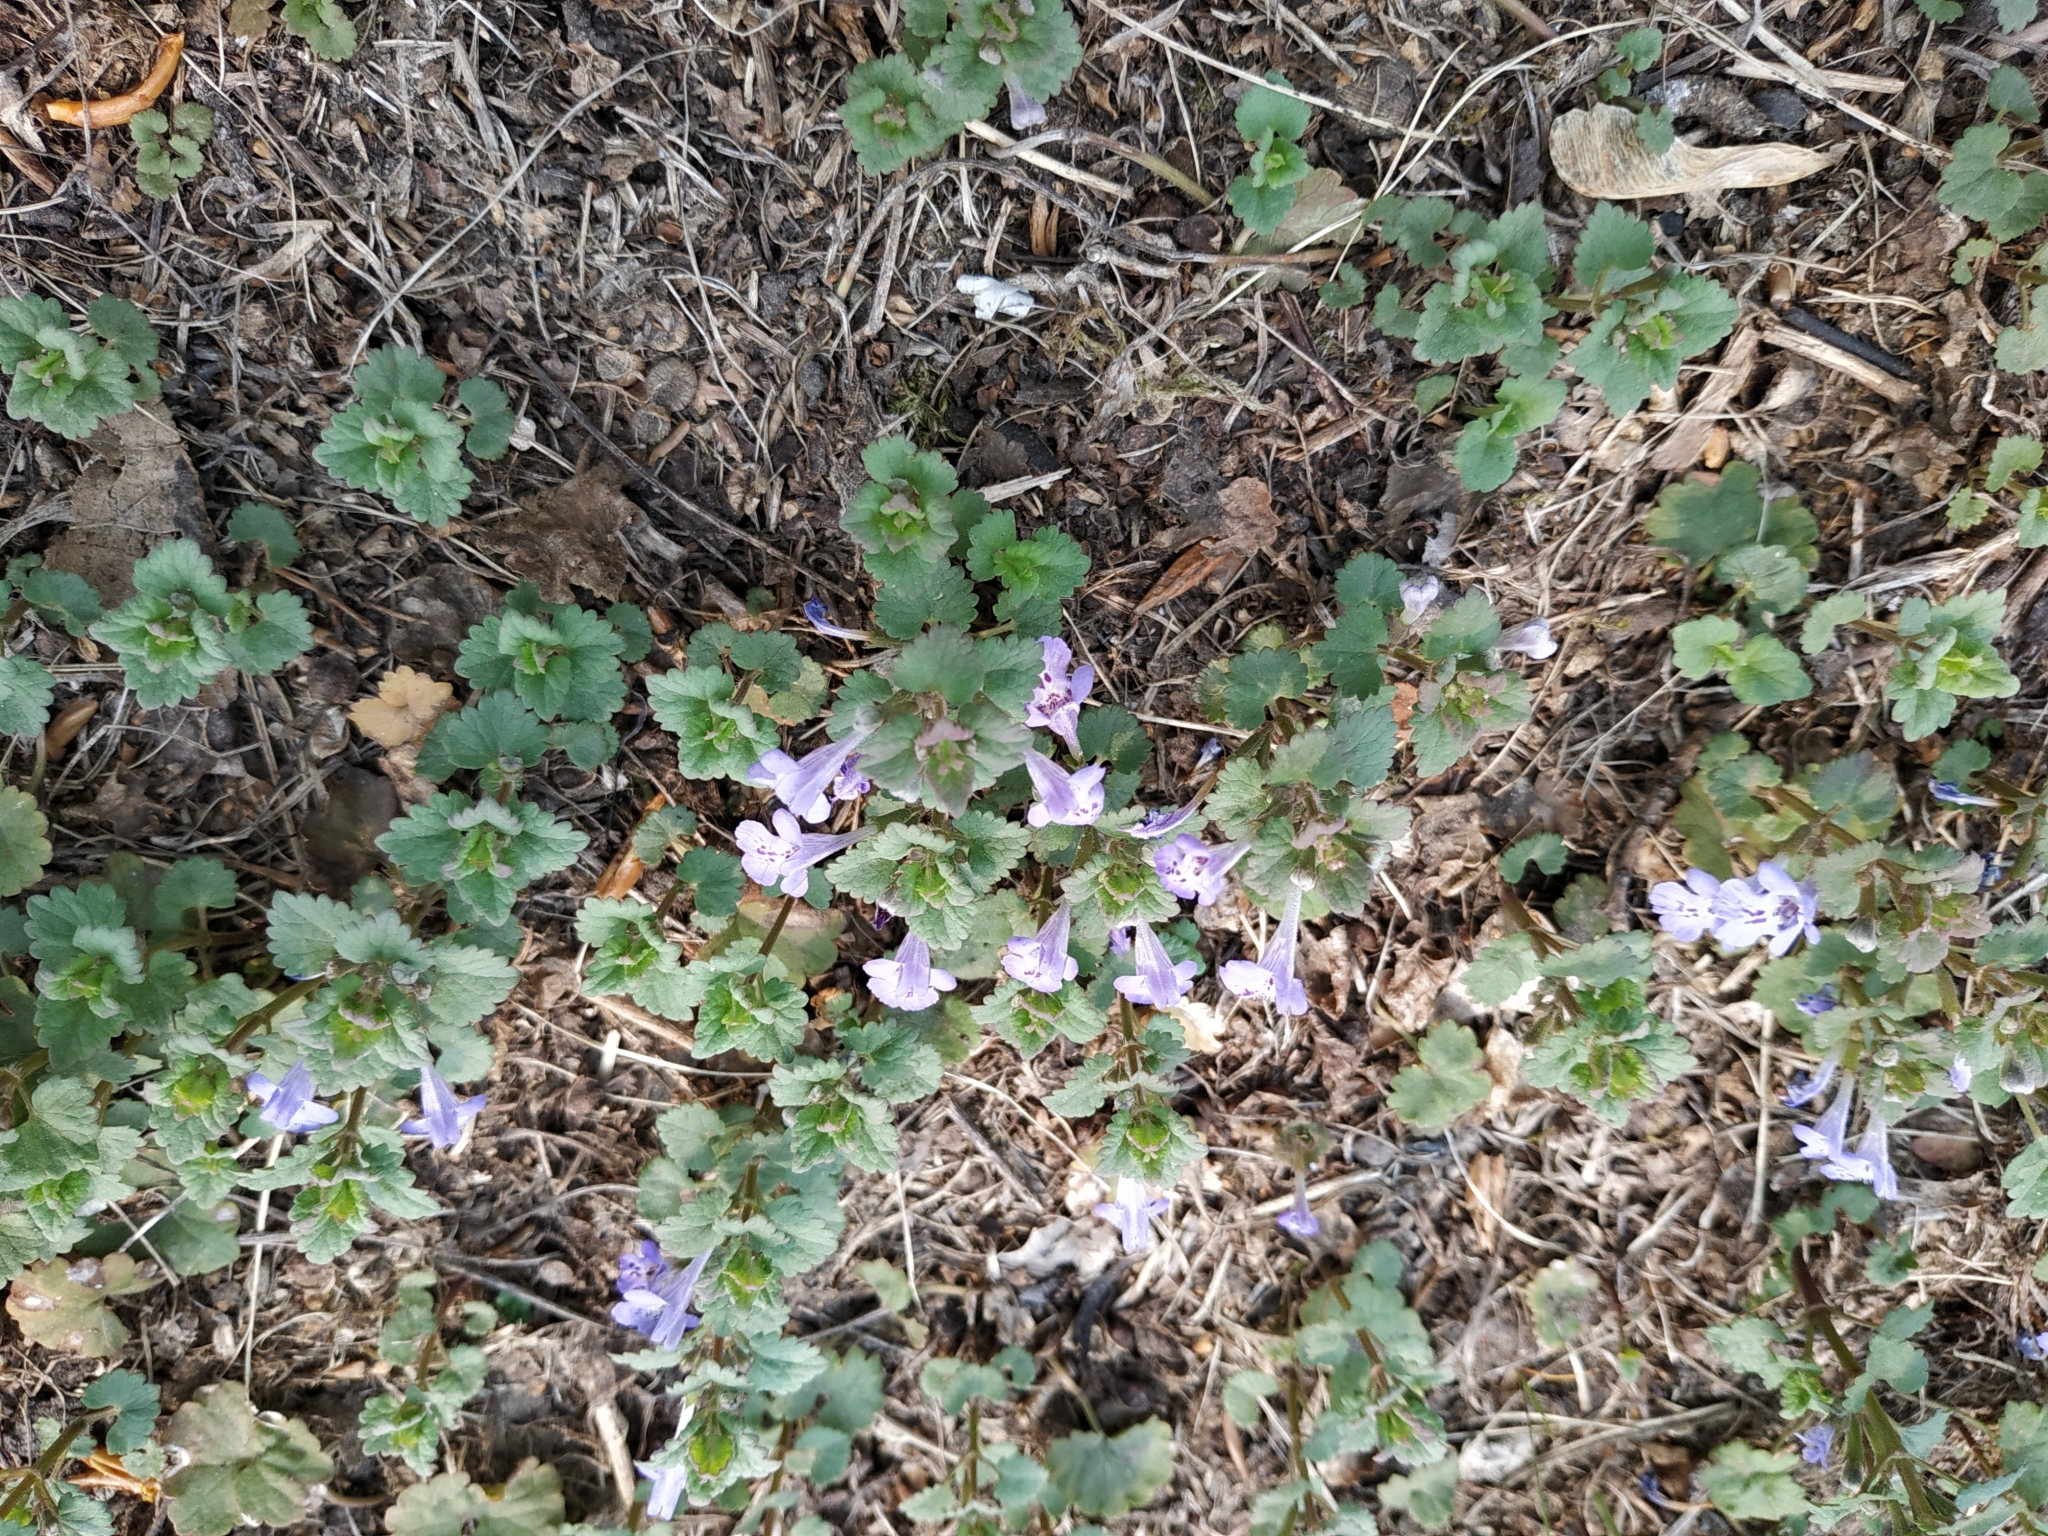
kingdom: Plantae
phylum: Tracheophyta
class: Magnoliopsida
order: Lamiales
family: Lamiaceae
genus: Glechoma
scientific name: Glechoma hederacea
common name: Ground ivy
